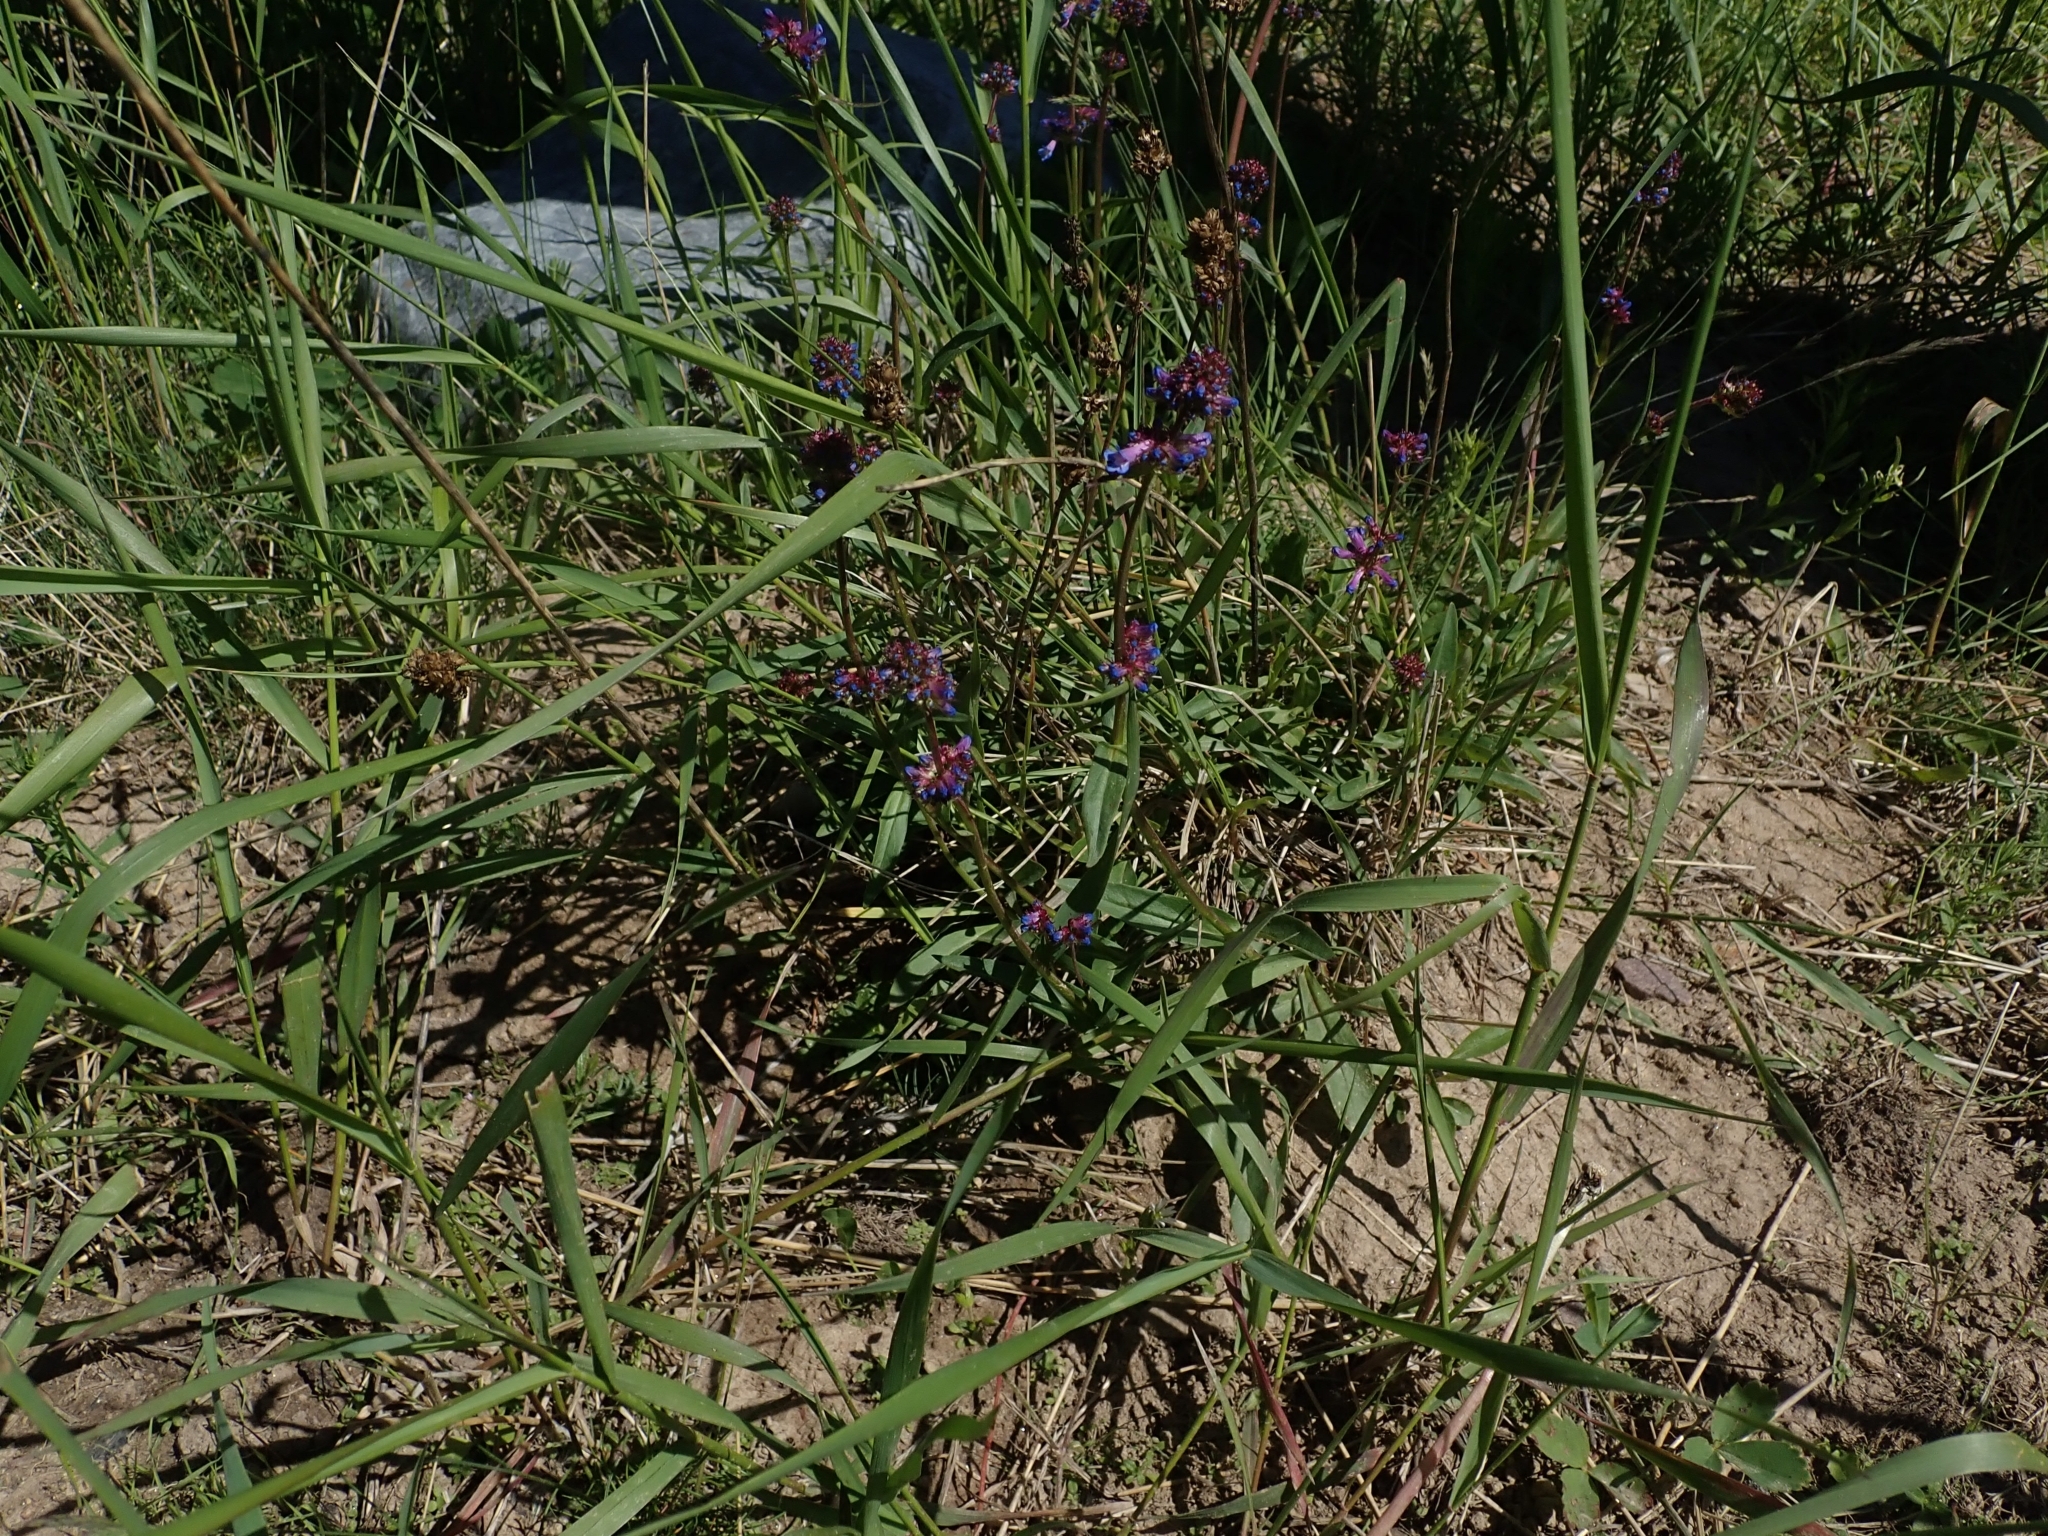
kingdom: Plantae
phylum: Tracheophyta
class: Magnoliopsida
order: Lamiales
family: Plantaginaceae
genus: Penstemon
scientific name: Penstemon procerus
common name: Small-flower penstemon
